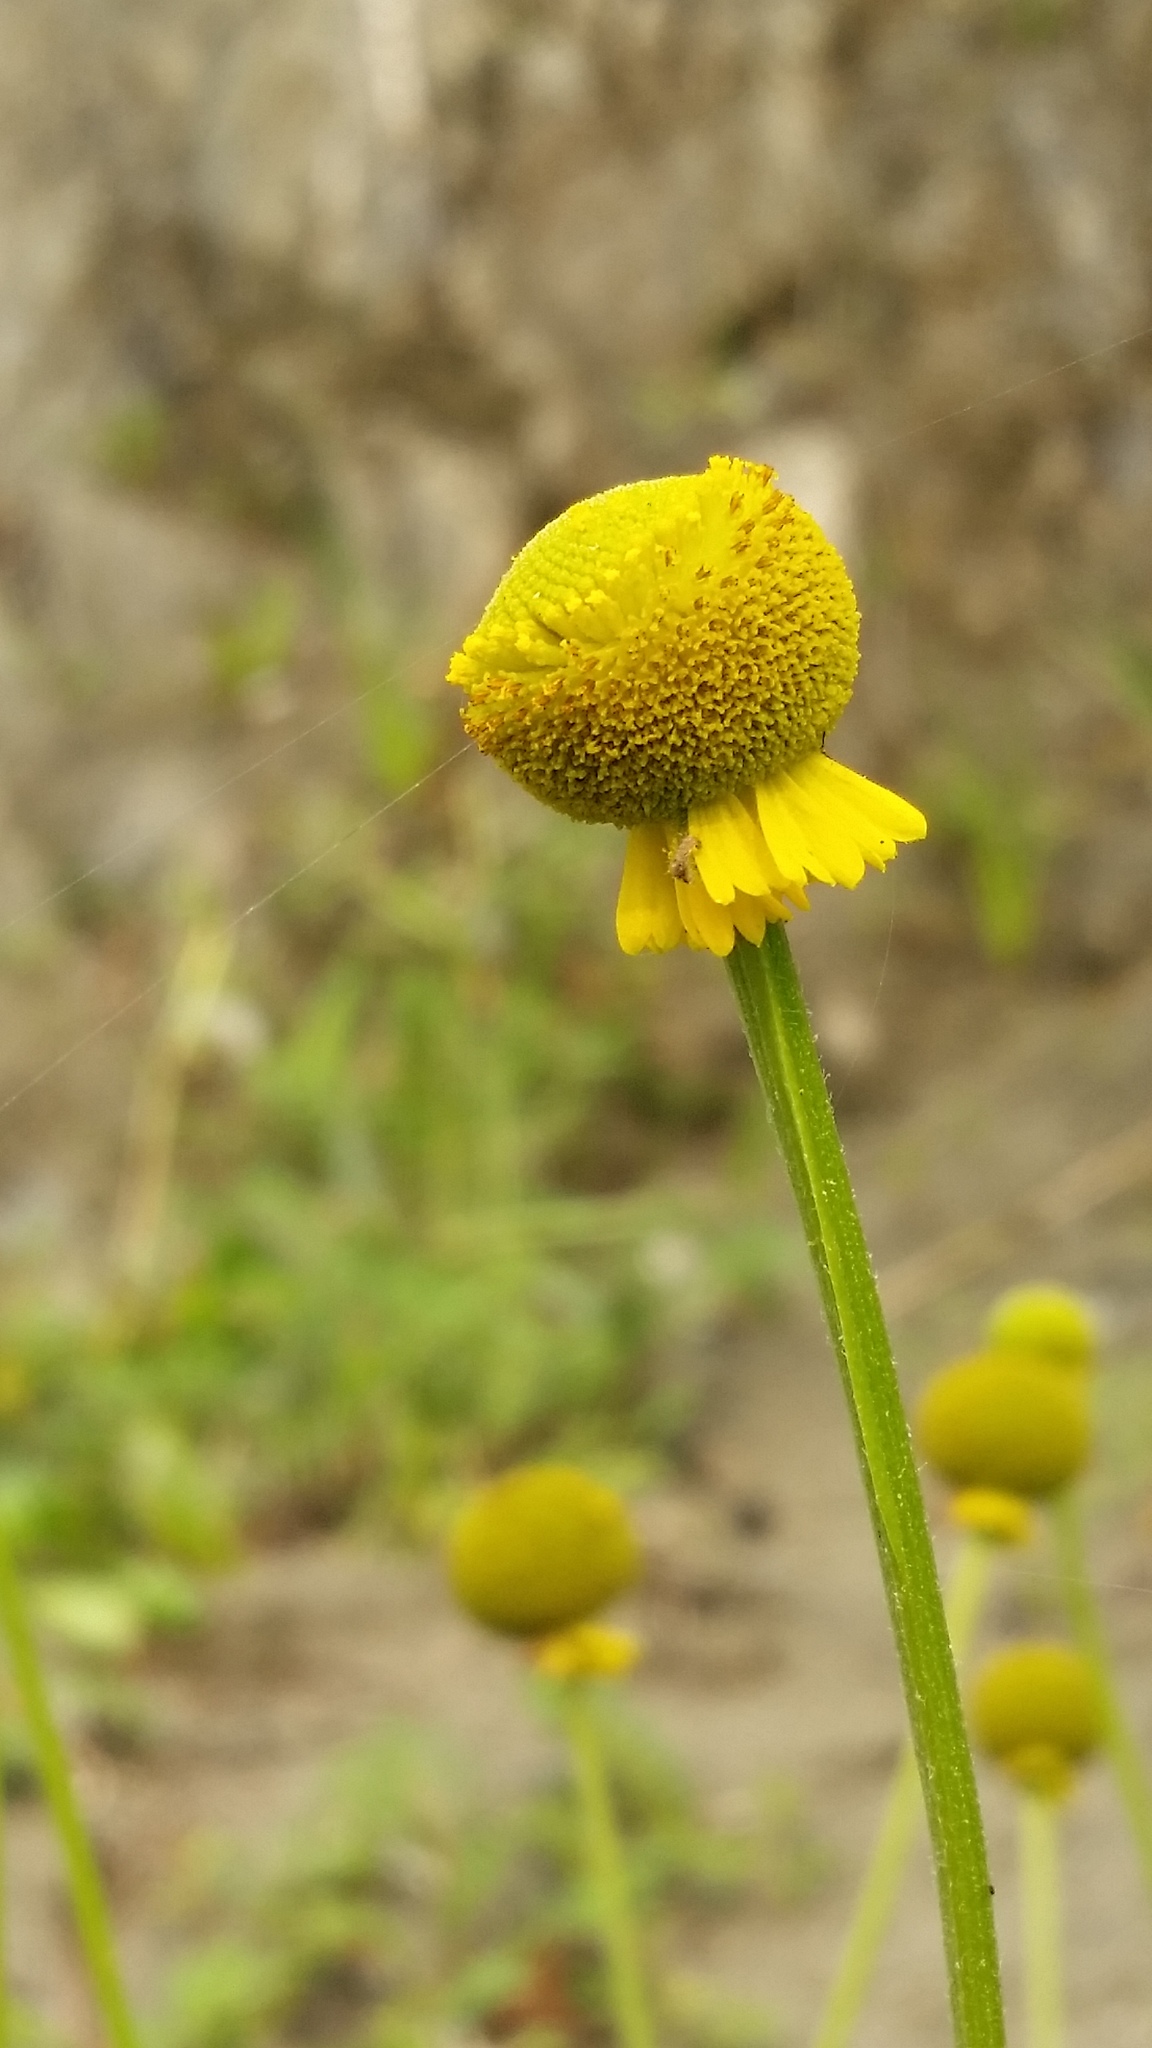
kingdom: Plantae
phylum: Tracheophyta
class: Magnoliopsida
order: Asterales
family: Asteraceae
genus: Helenium
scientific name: Helenium puberulum
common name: Sneezewort
